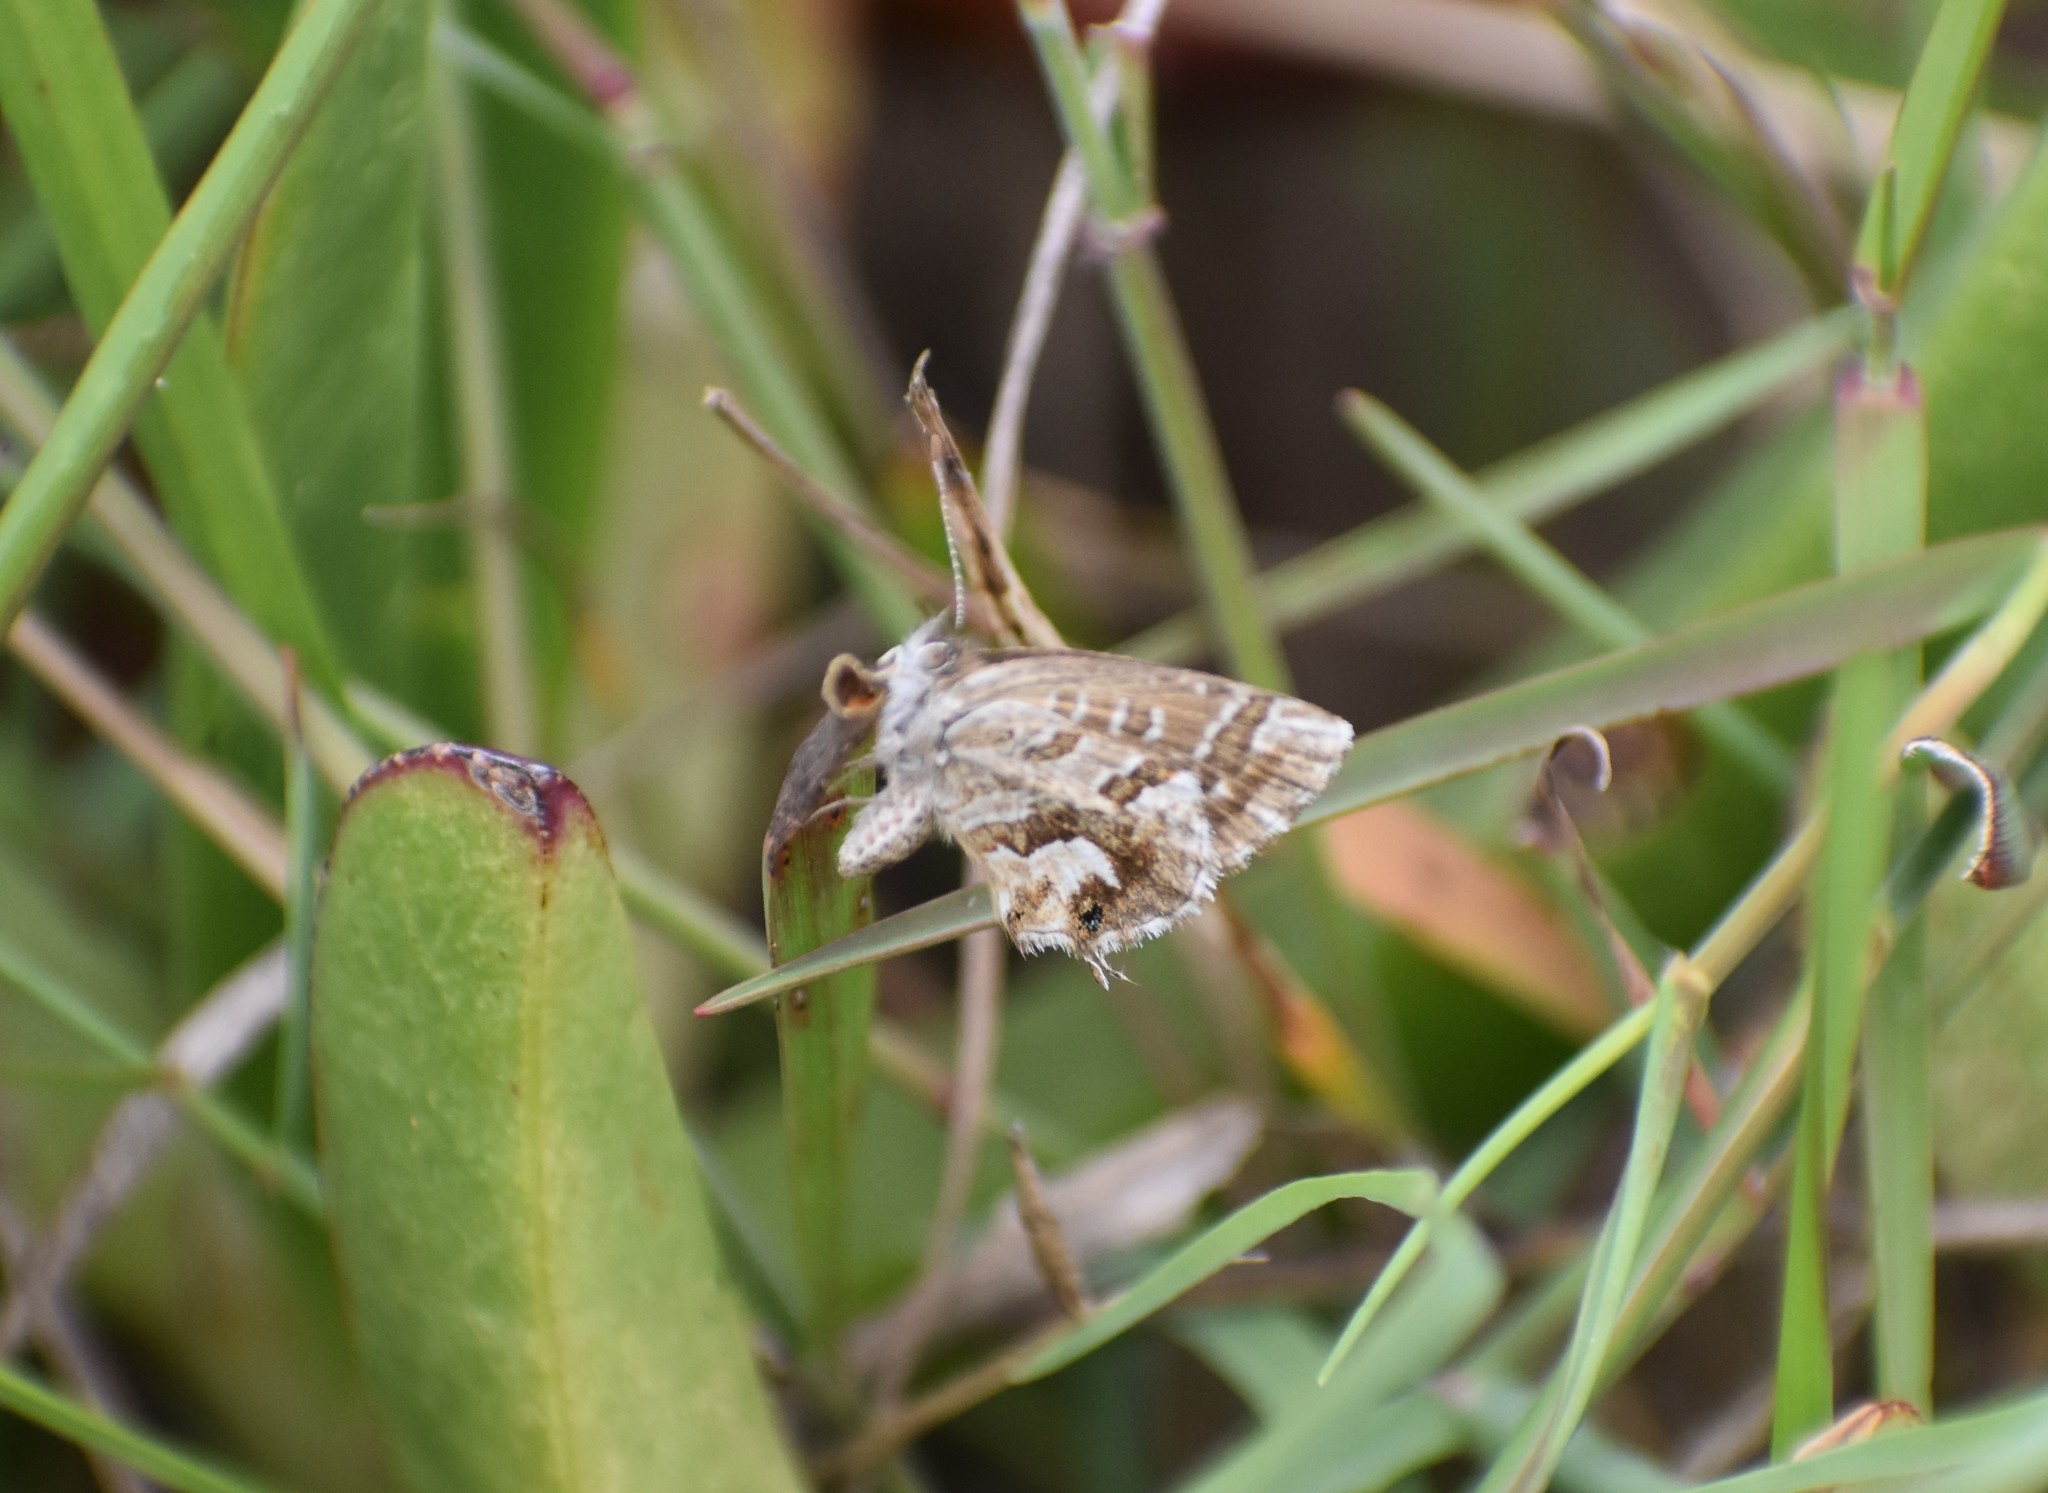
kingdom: Animalia
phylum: Arthropoda
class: Insecta
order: Lepidoptera
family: Lycaenidae
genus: Cacyreus
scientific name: Cacyreus marshalli
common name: Geranium bronze
